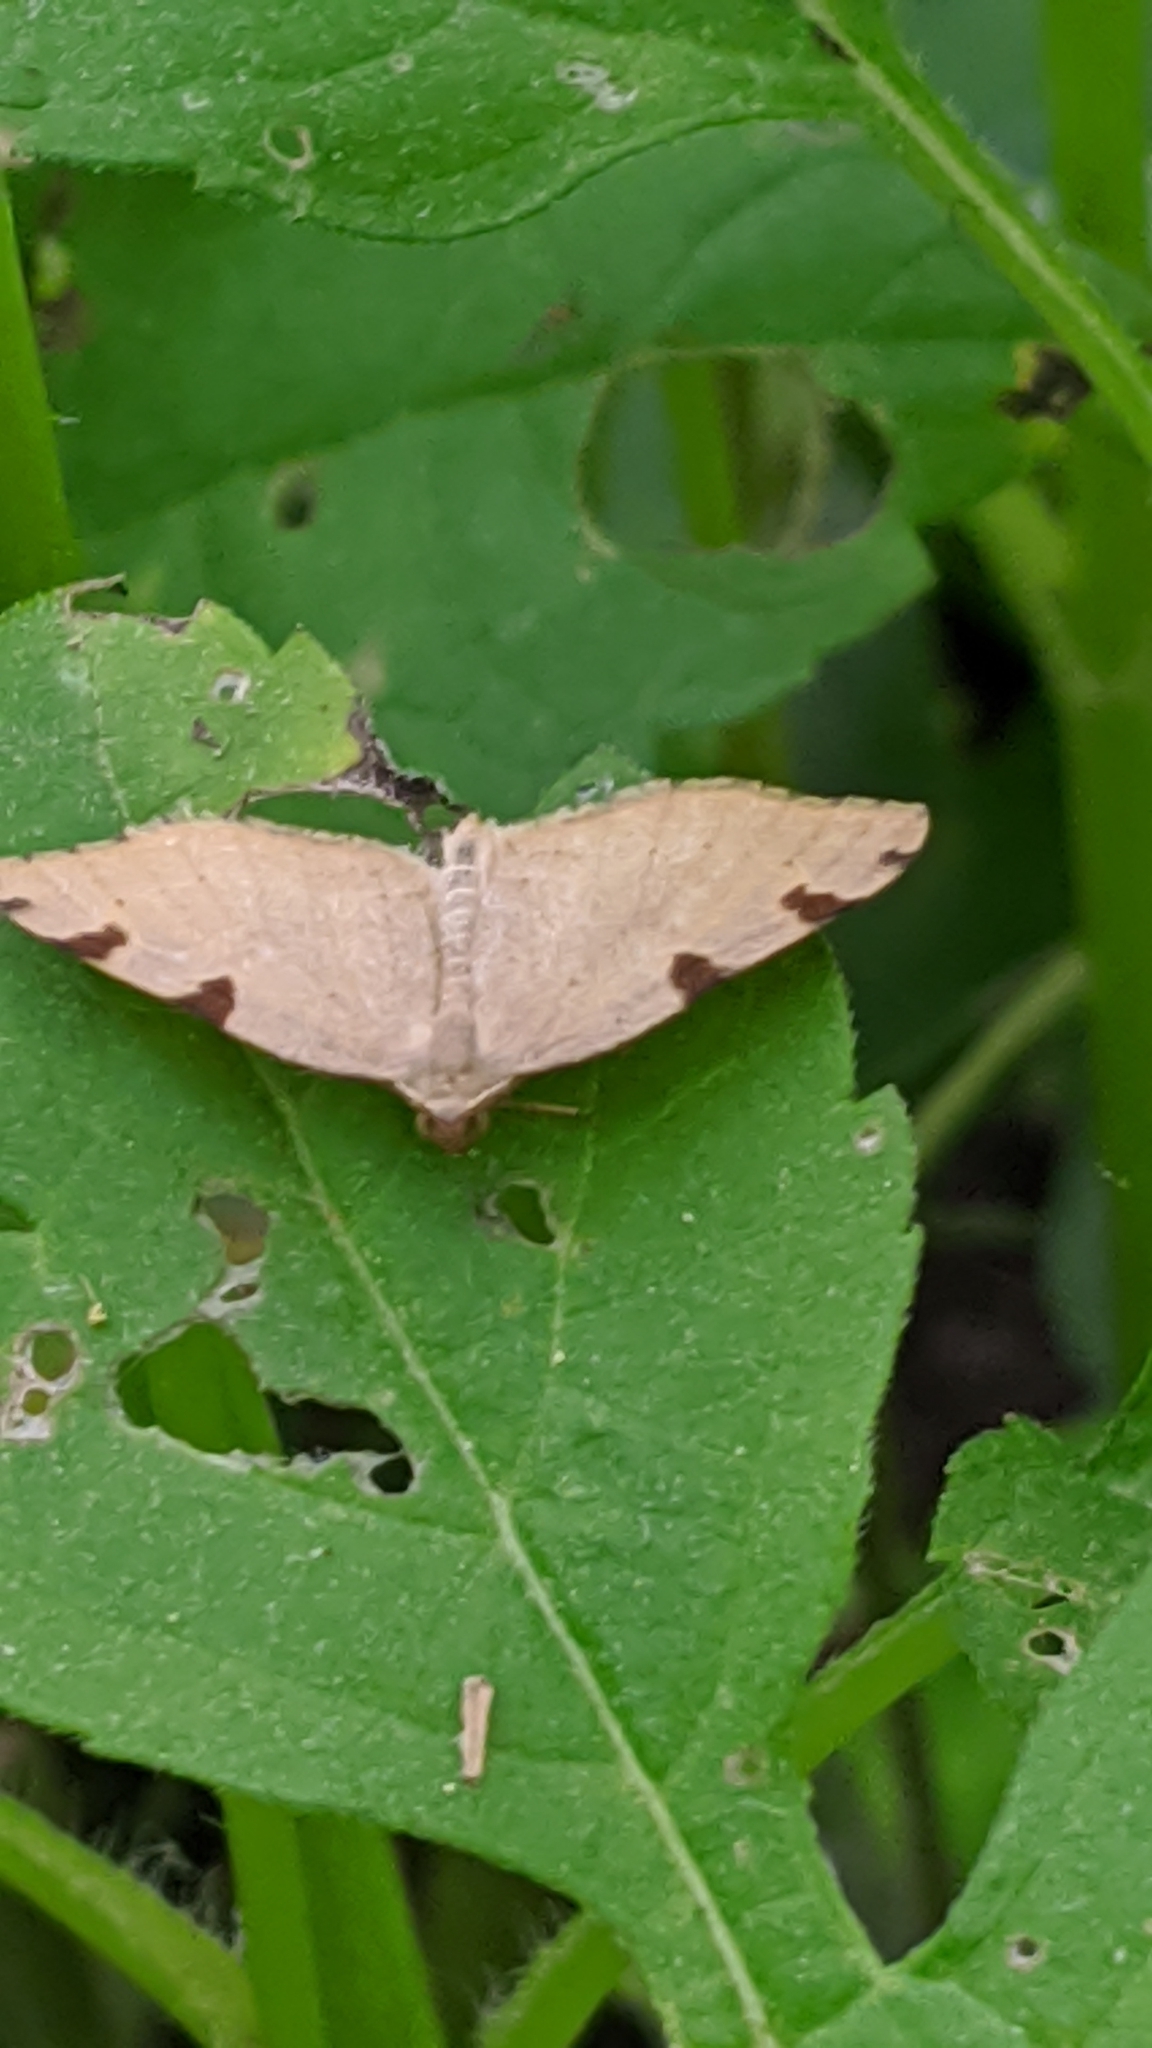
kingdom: Animalia
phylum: Arthropoda
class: Insecta
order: Lepidoptera
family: Geometridae
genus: Heterophleps
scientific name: Heterophleps triguttaria
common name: Three-spotted fillip
